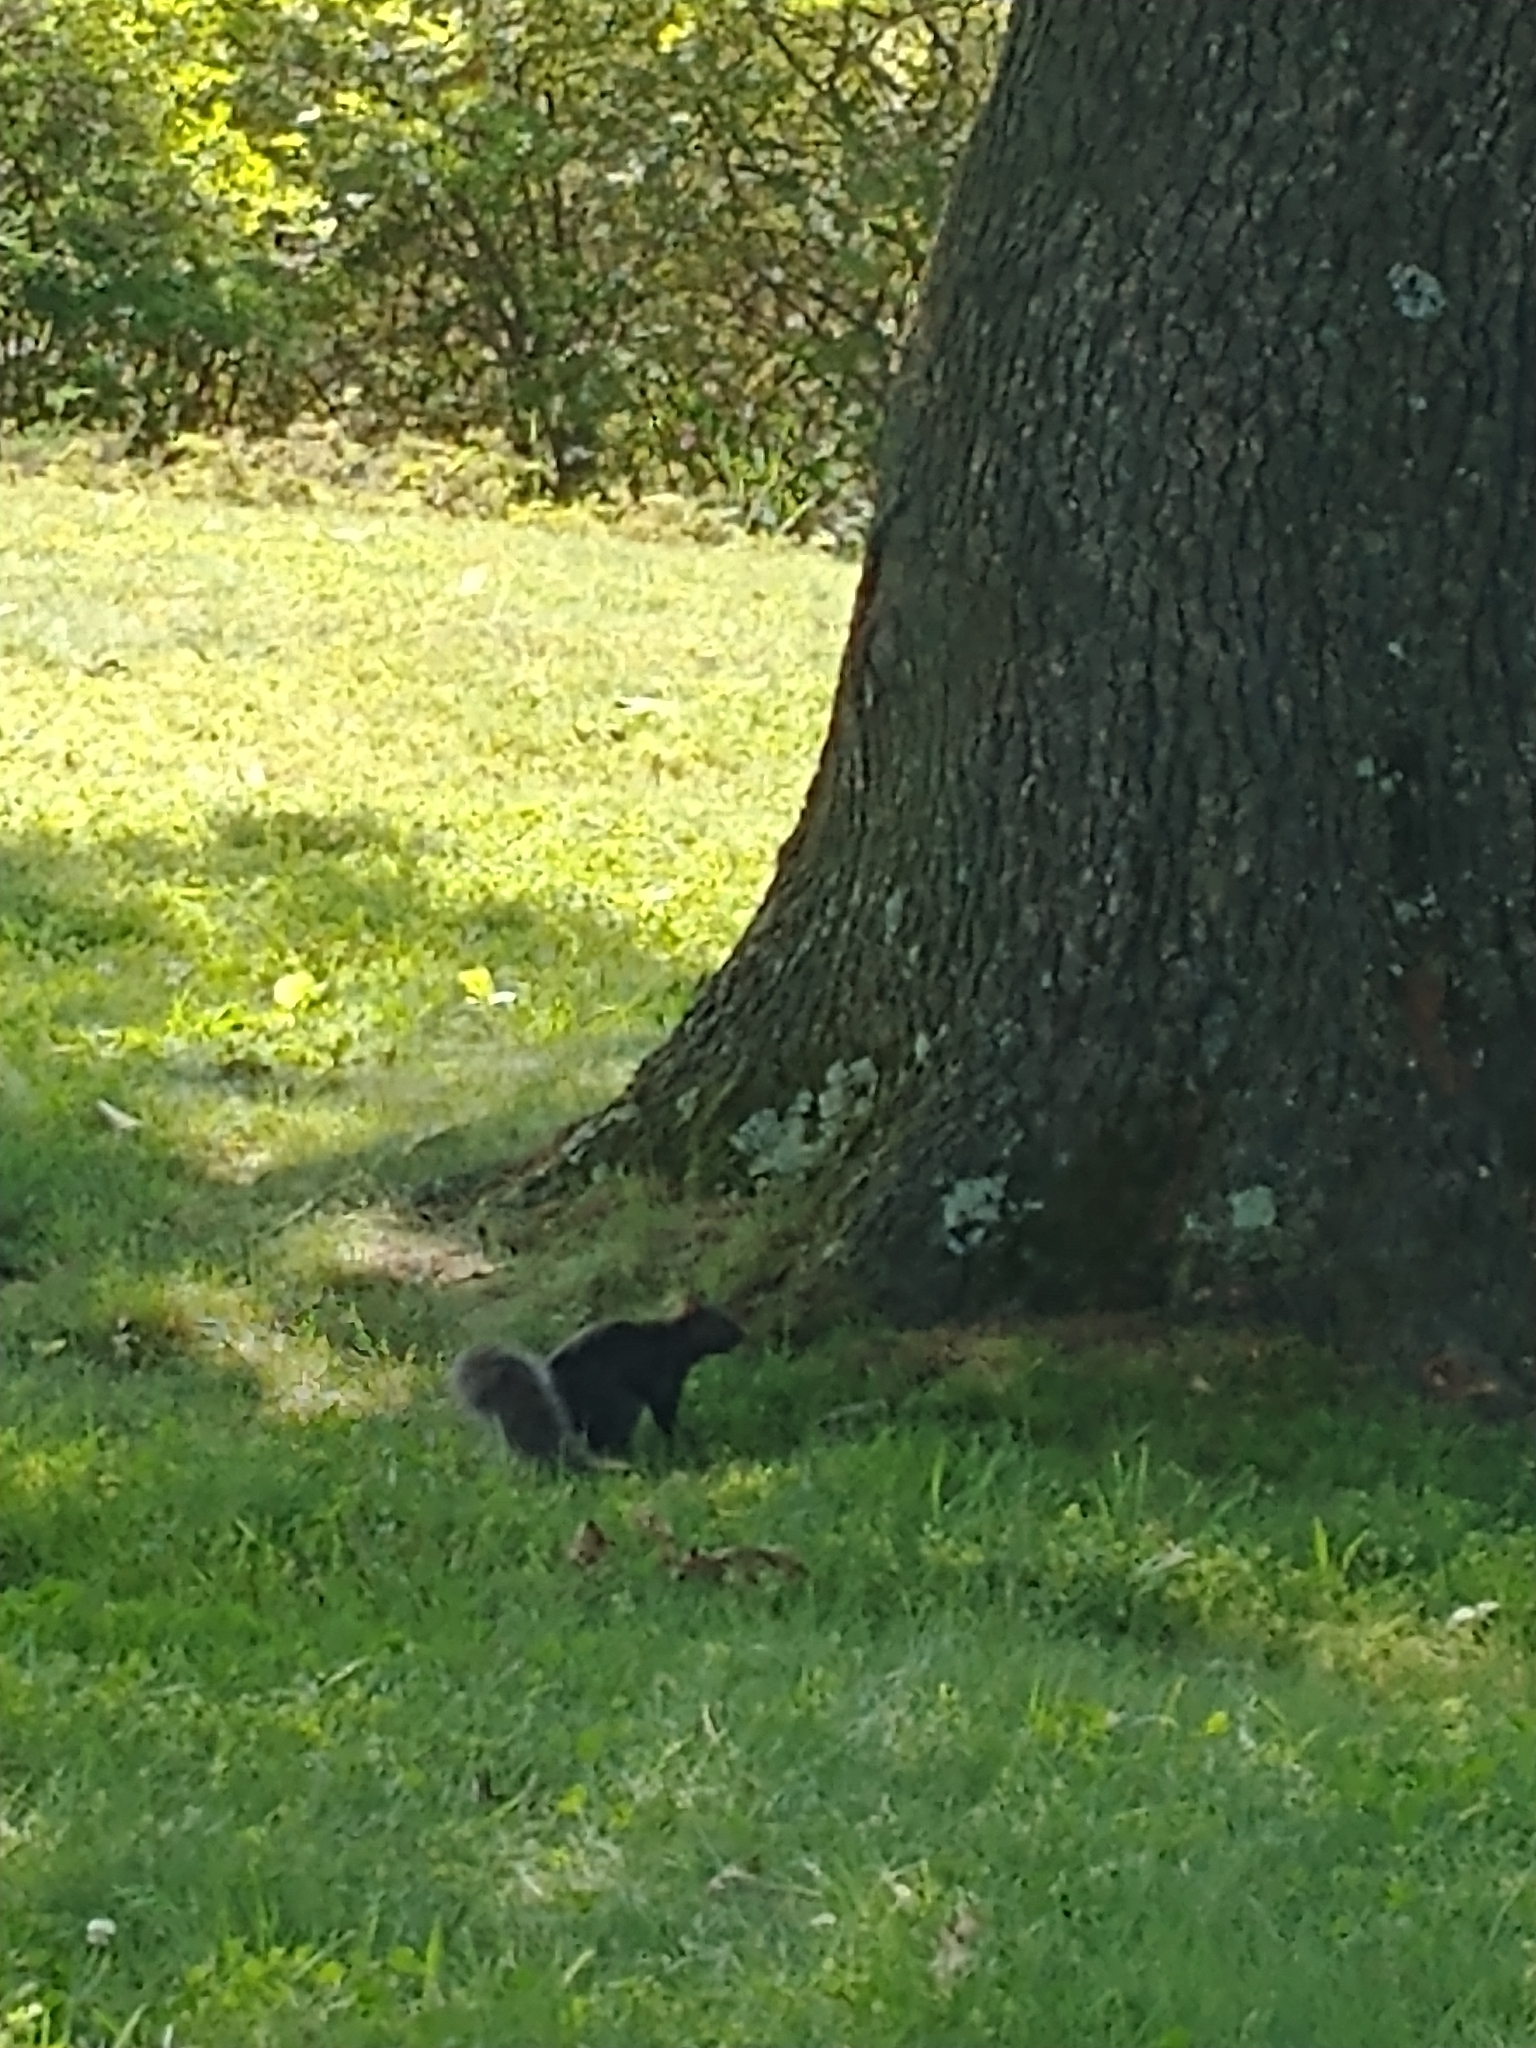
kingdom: Animalia
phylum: Chordata
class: Mammalia
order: Rodentia
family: Sciuridae
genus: Sciurus
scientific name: Sciurus carolinensis
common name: Eastern gray squirrel
